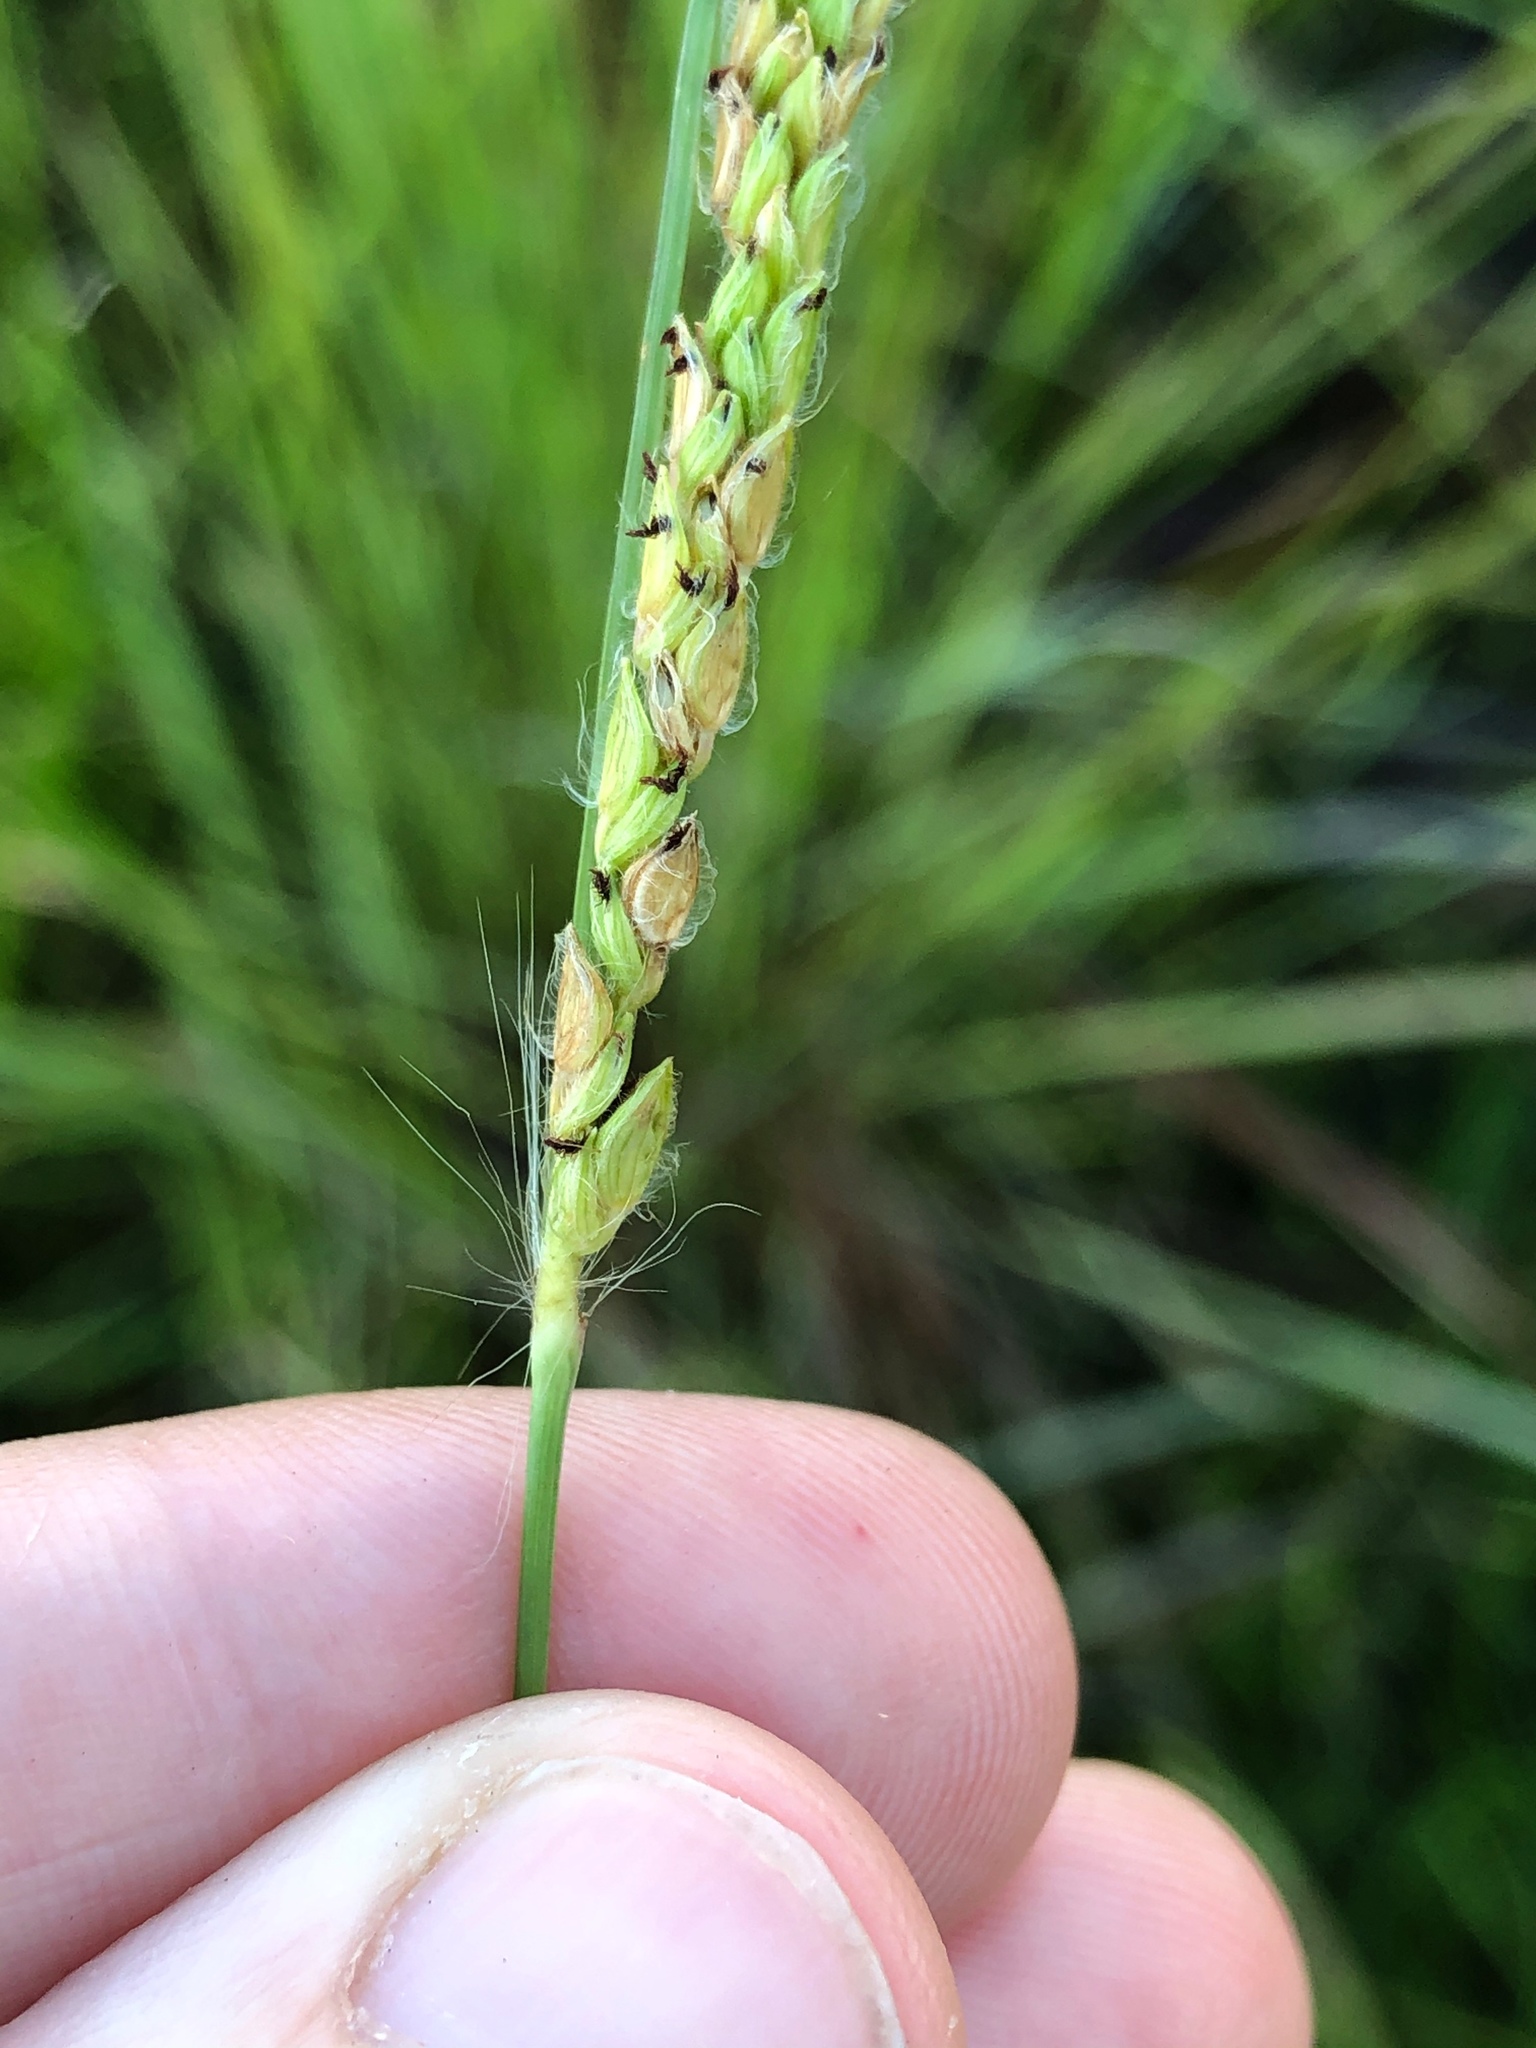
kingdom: Plantae
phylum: Tracheophyta
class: Liliopsida
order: Poales
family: Poaceae
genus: Paspalum
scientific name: Paspalum dilatatum
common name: Dallisgrass
